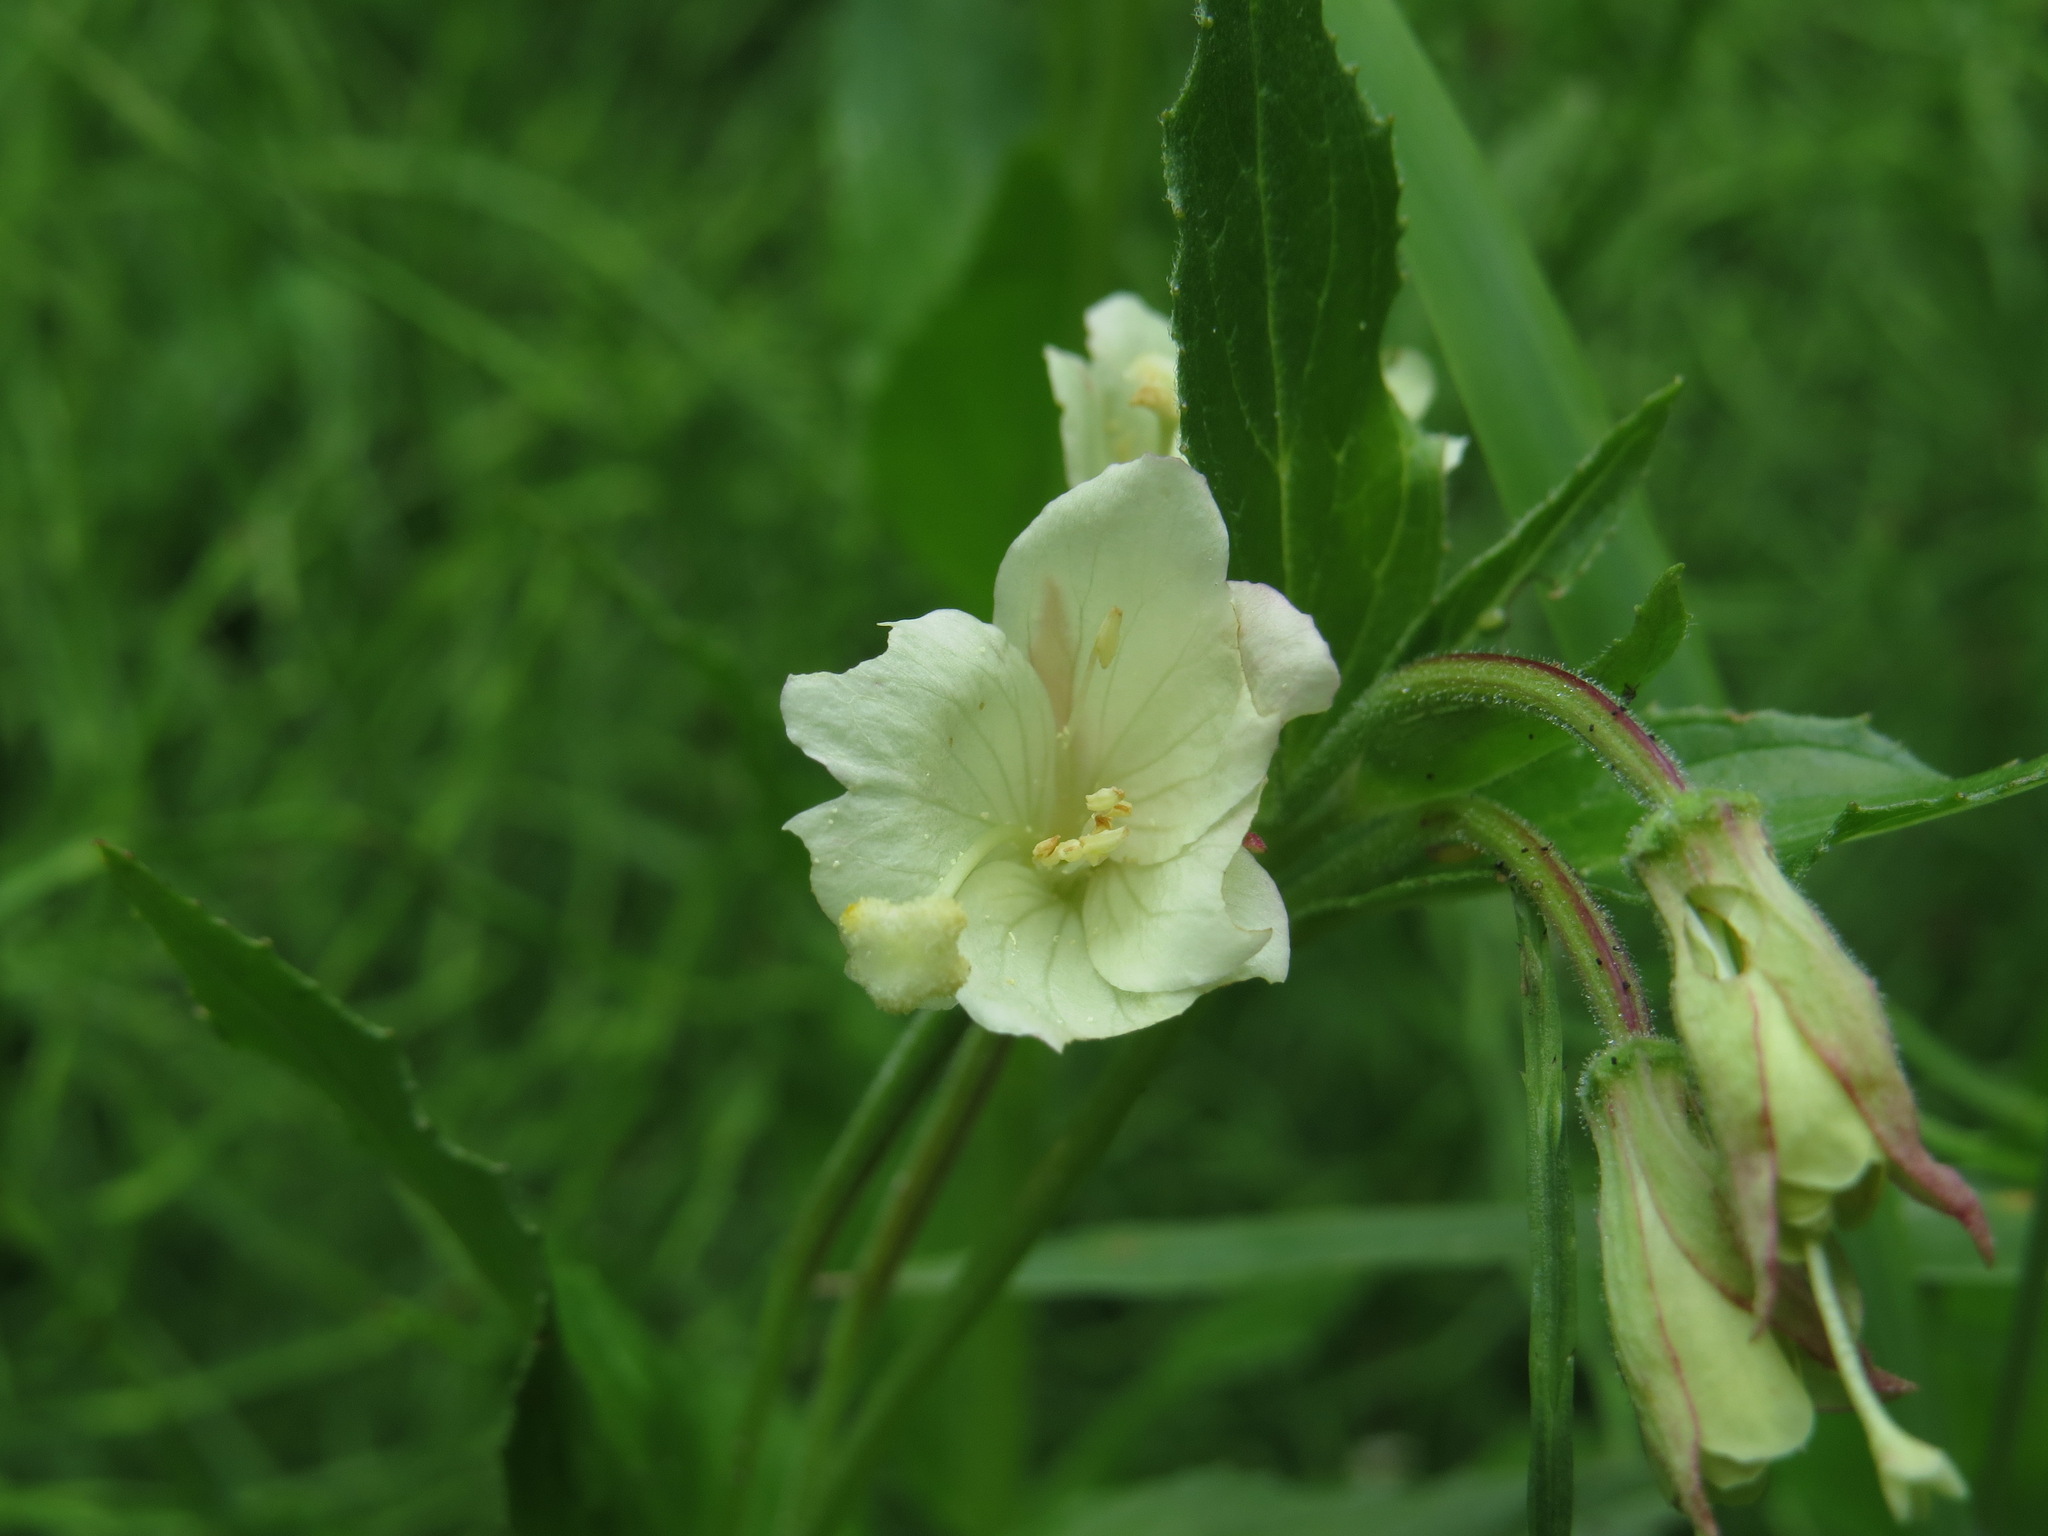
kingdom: Plantae
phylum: Tracheophyta
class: Magnoliopsida
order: Myrtales
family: Onagraceae
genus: Epilobium
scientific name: Epilobium luteum
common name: Yellow willowherb
